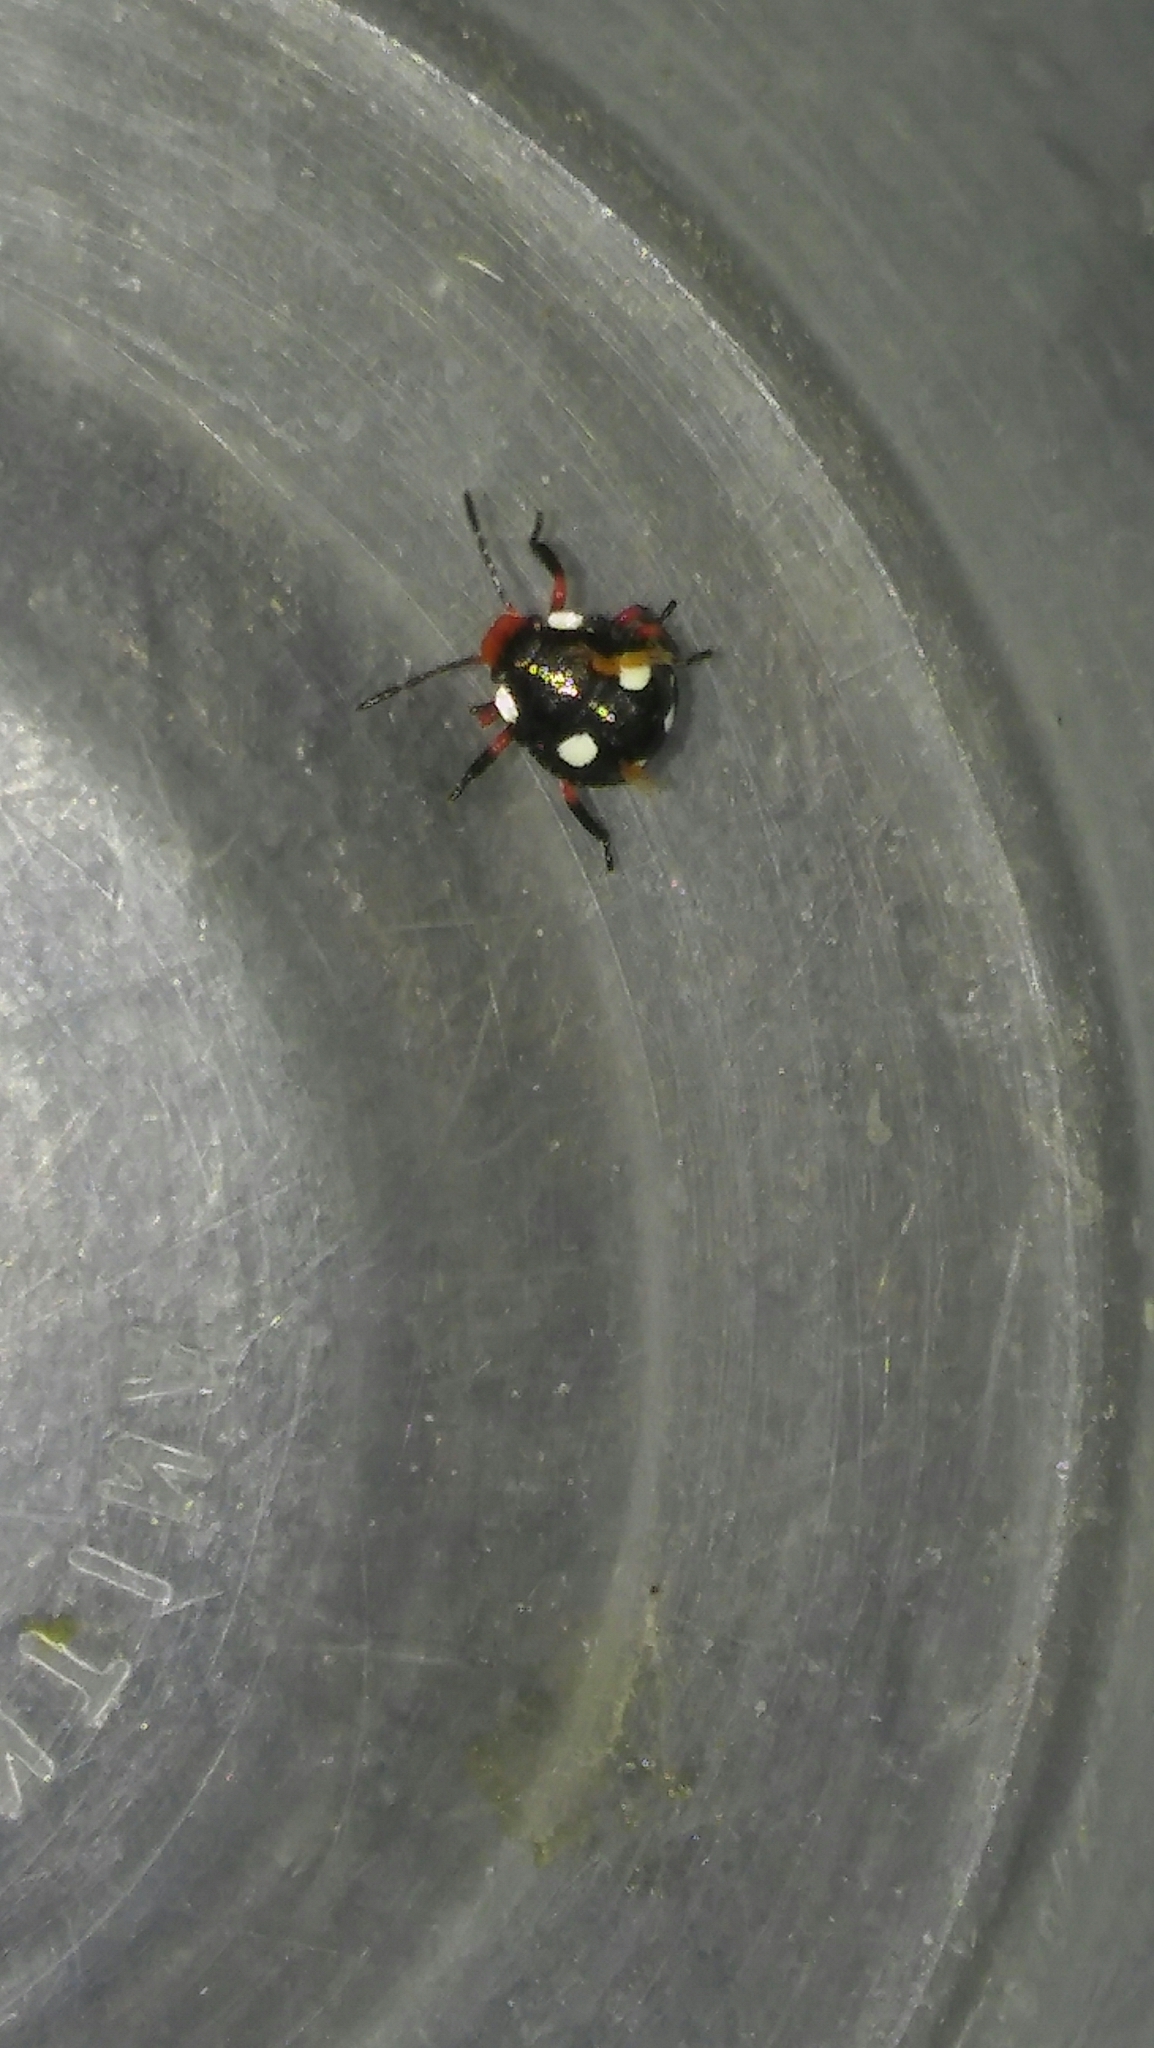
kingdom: Animalia
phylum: Arthropoda
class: Insecta
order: Hemiptera
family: Pentatomidae
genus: Chinavia
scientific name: Chinavia erythrocnemis
